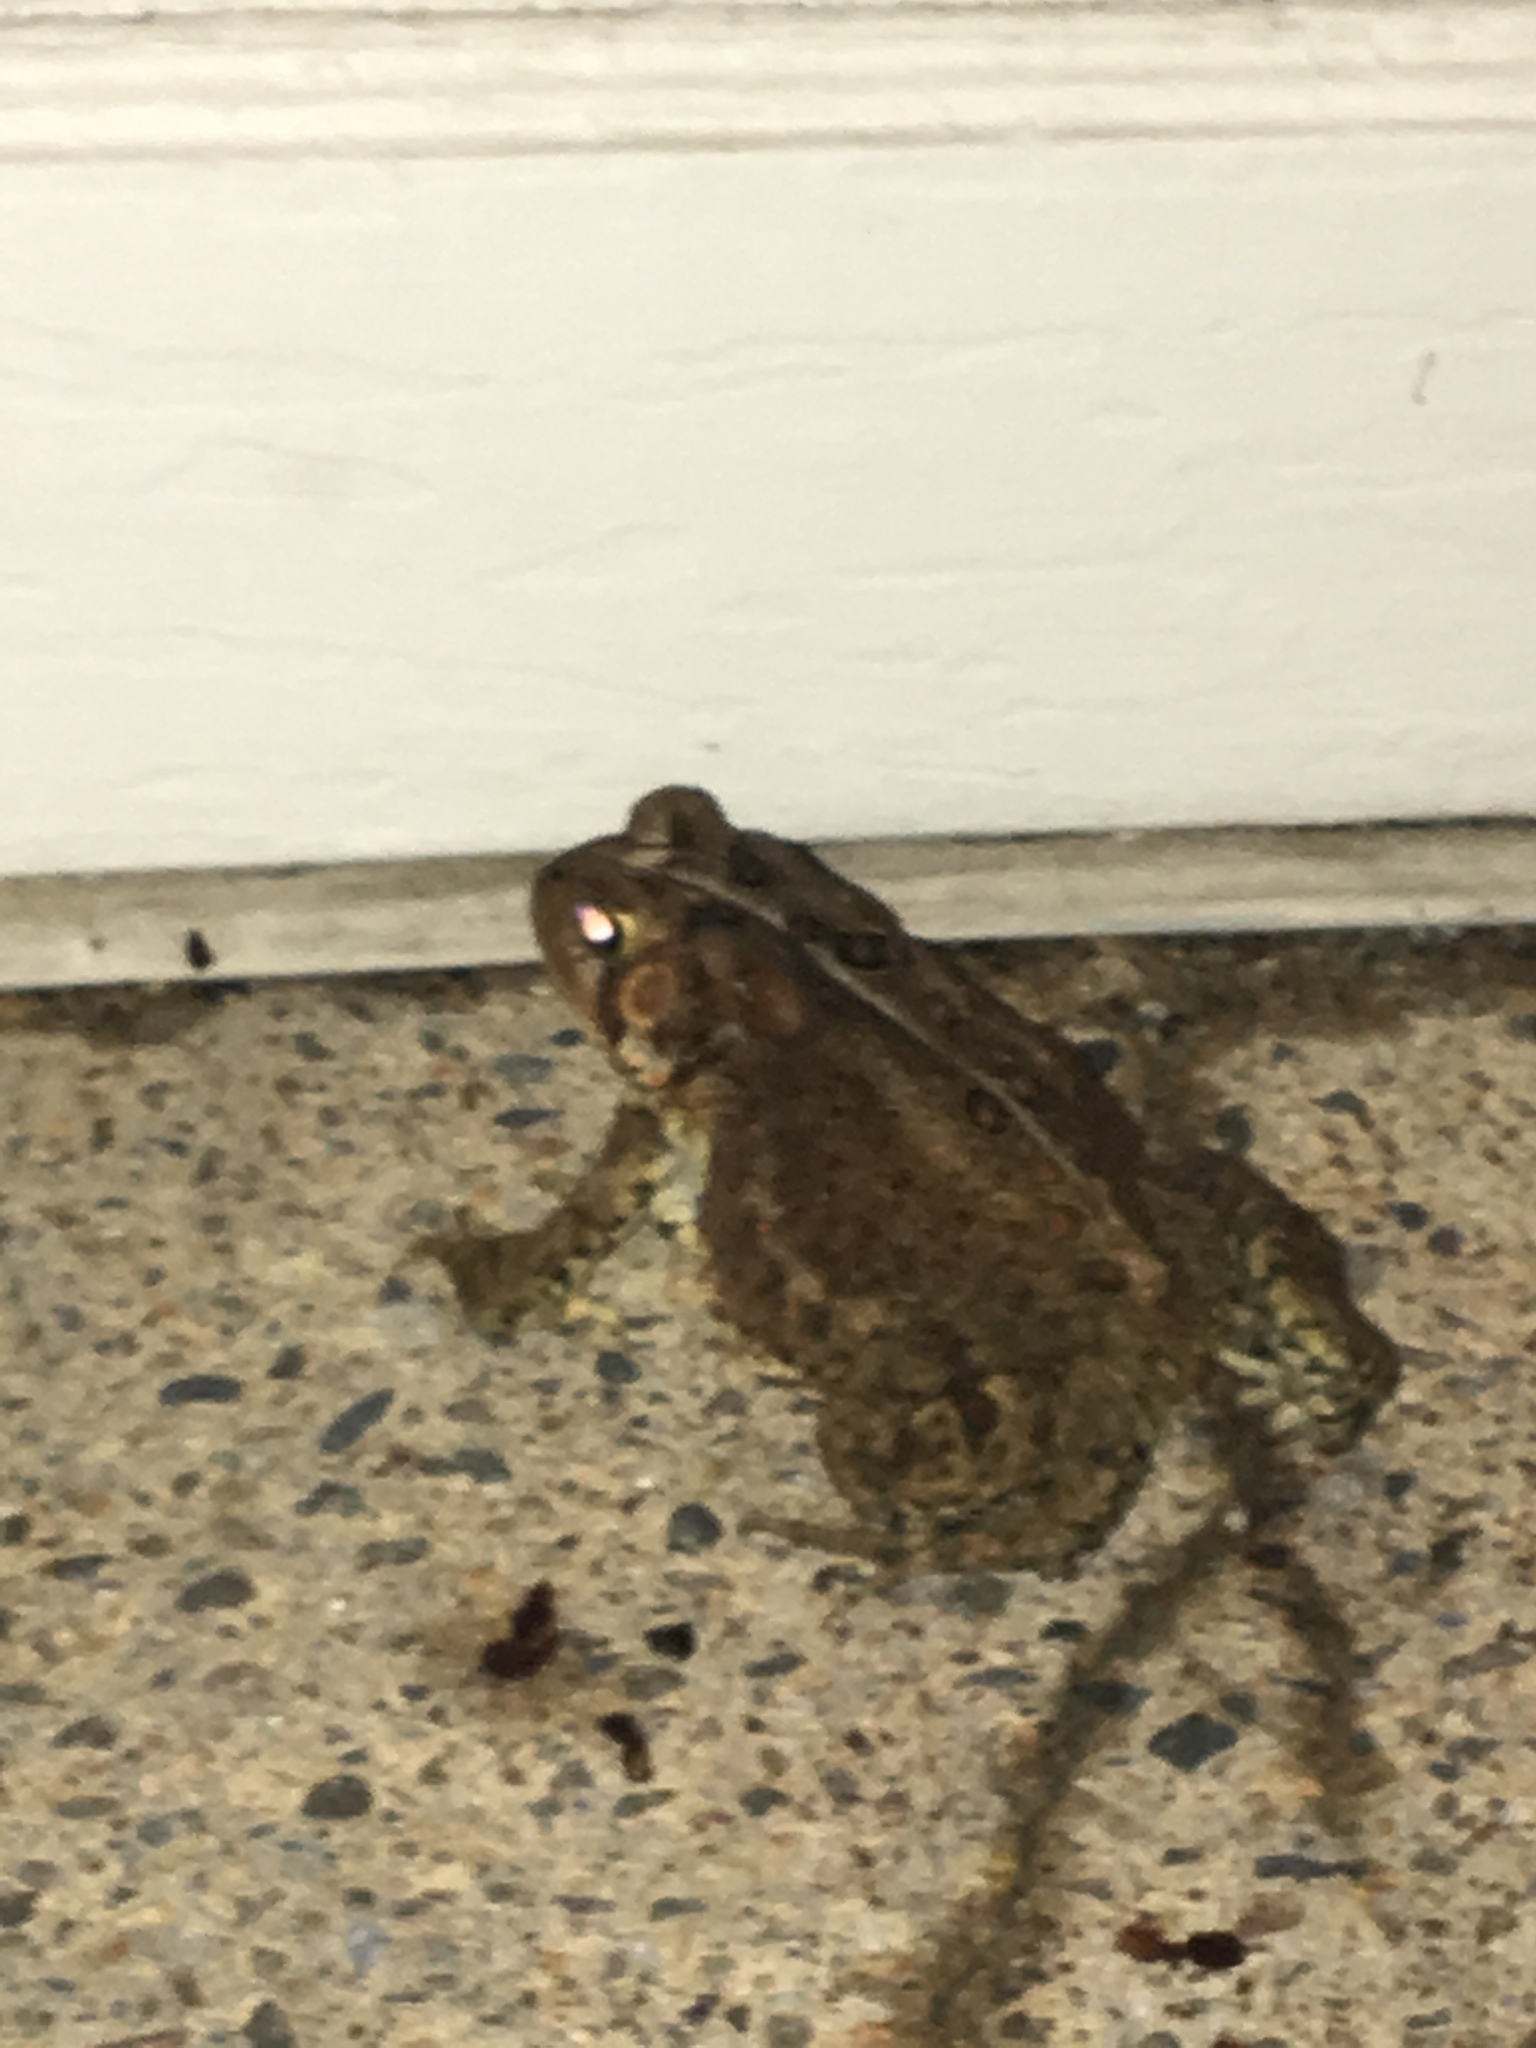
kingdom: Animalia
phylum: Chordata
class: Amphibia
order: Anura
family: Bufonidae
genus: Anaxyrus
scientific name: Anaxyrus americanus
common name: American toad
